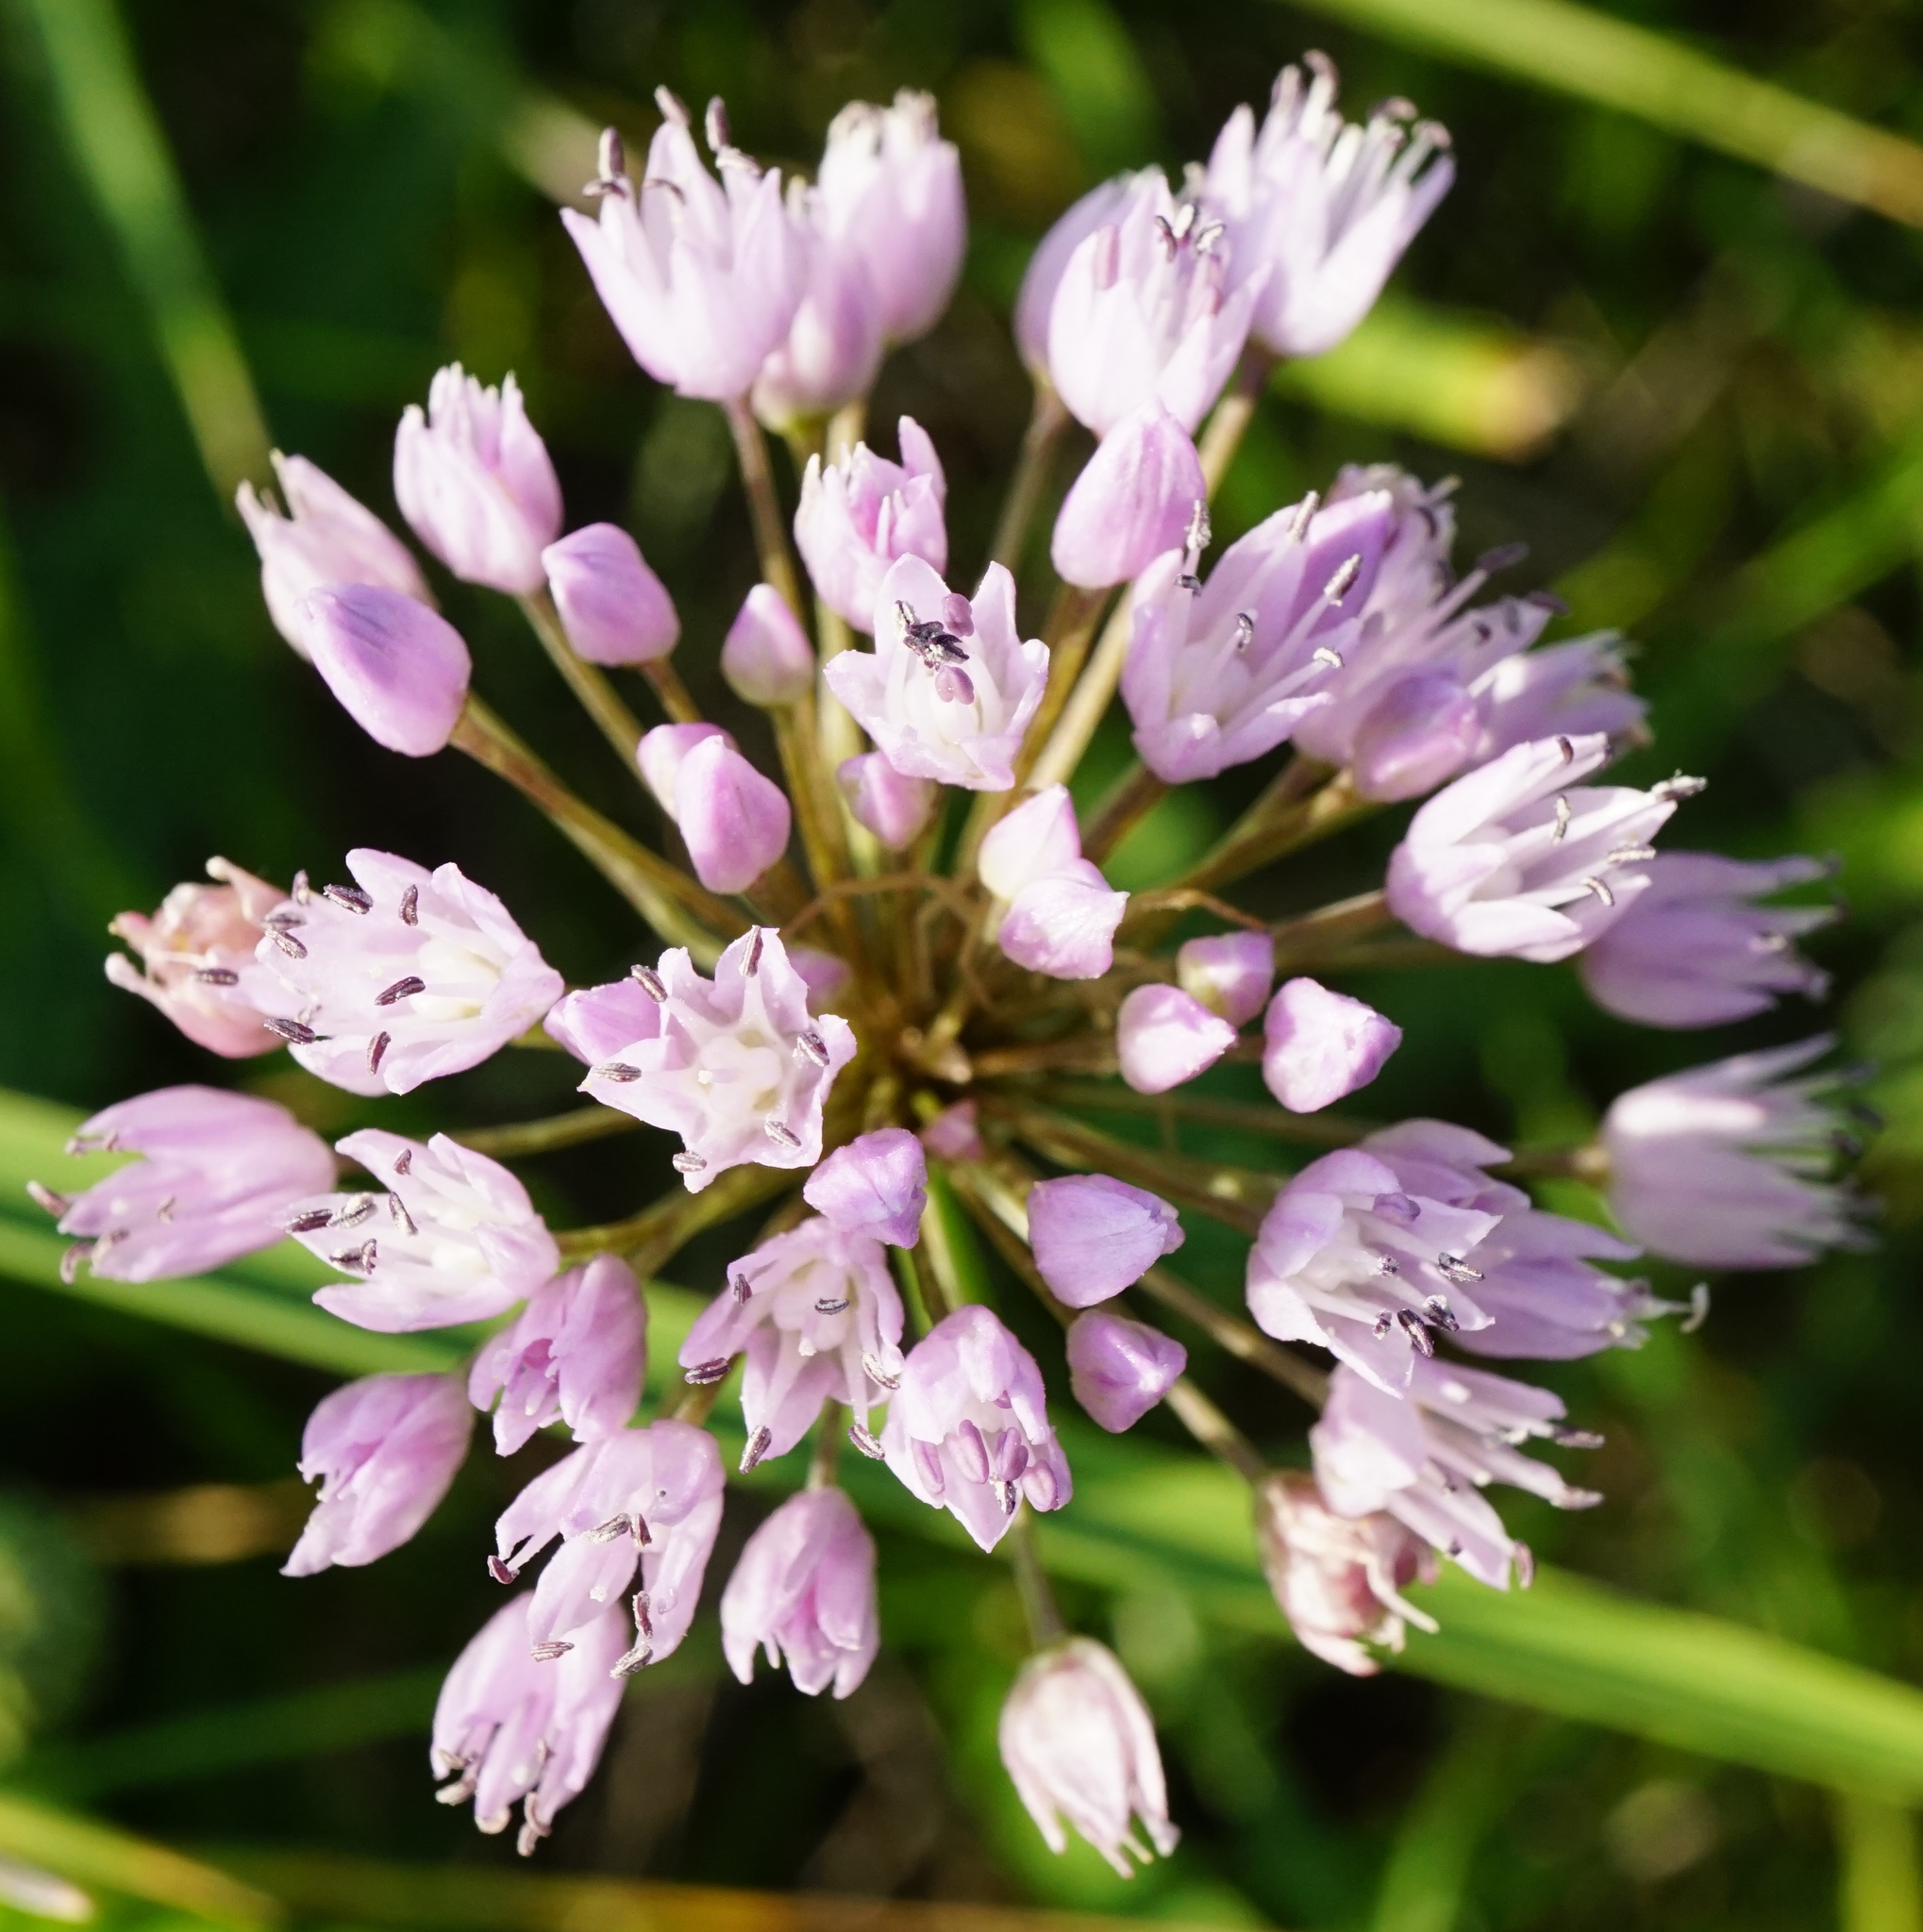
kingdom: Plantae
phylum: Tracheophyta
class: Liliopsida
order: Asparagales
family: Amaryllidaceae
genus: Allium
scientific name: Allium angulosum
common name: Mouse garlic
